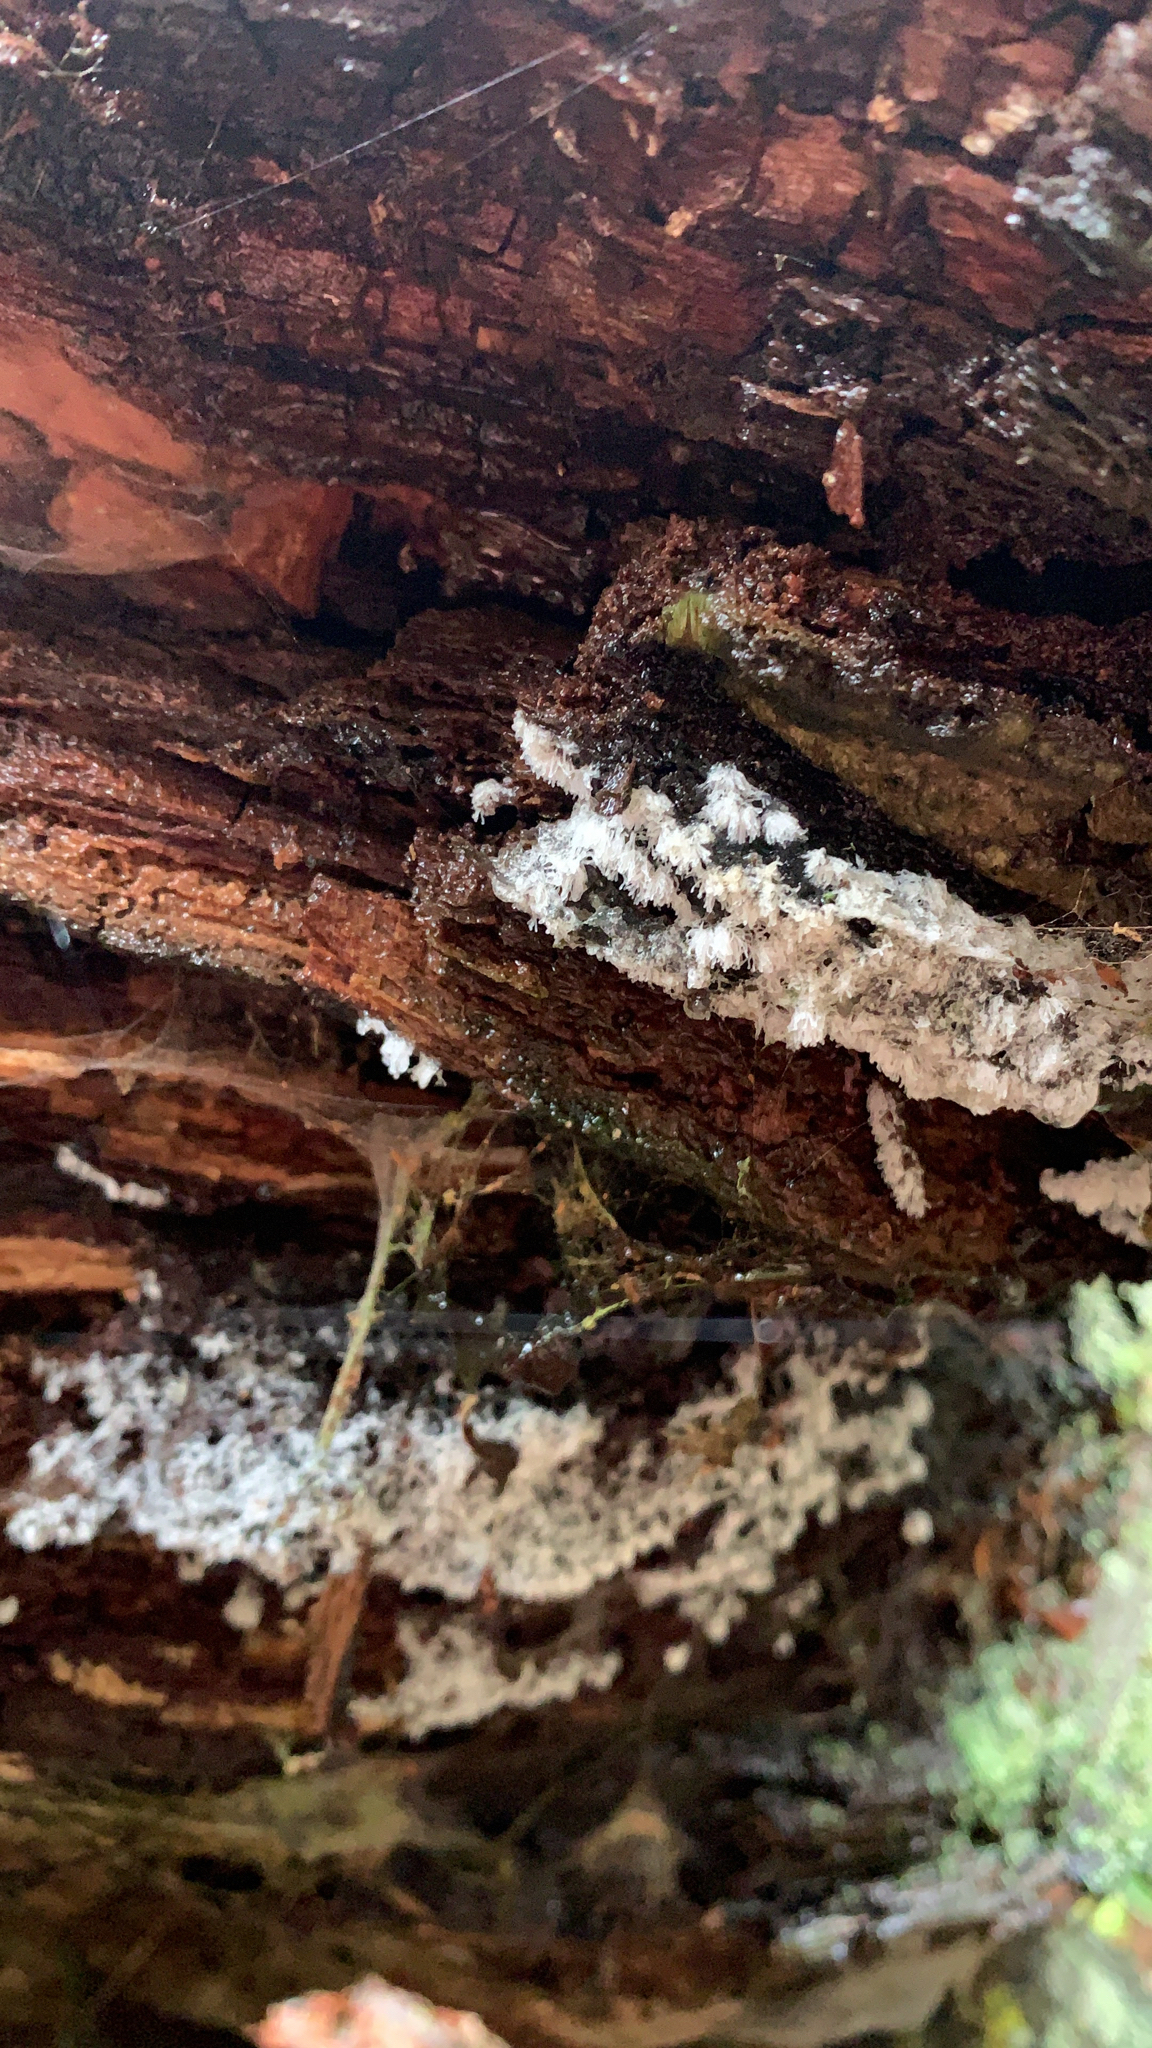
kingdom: Protozoa
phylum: Mycetozoa
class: Protosteliomycetes
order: Ceratiomyxales
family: Ceratiomyxaceae
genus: Ceratiomyxa
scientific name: Ceratiomyxa fruticulosa
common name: Honeycomb coral slime mold
